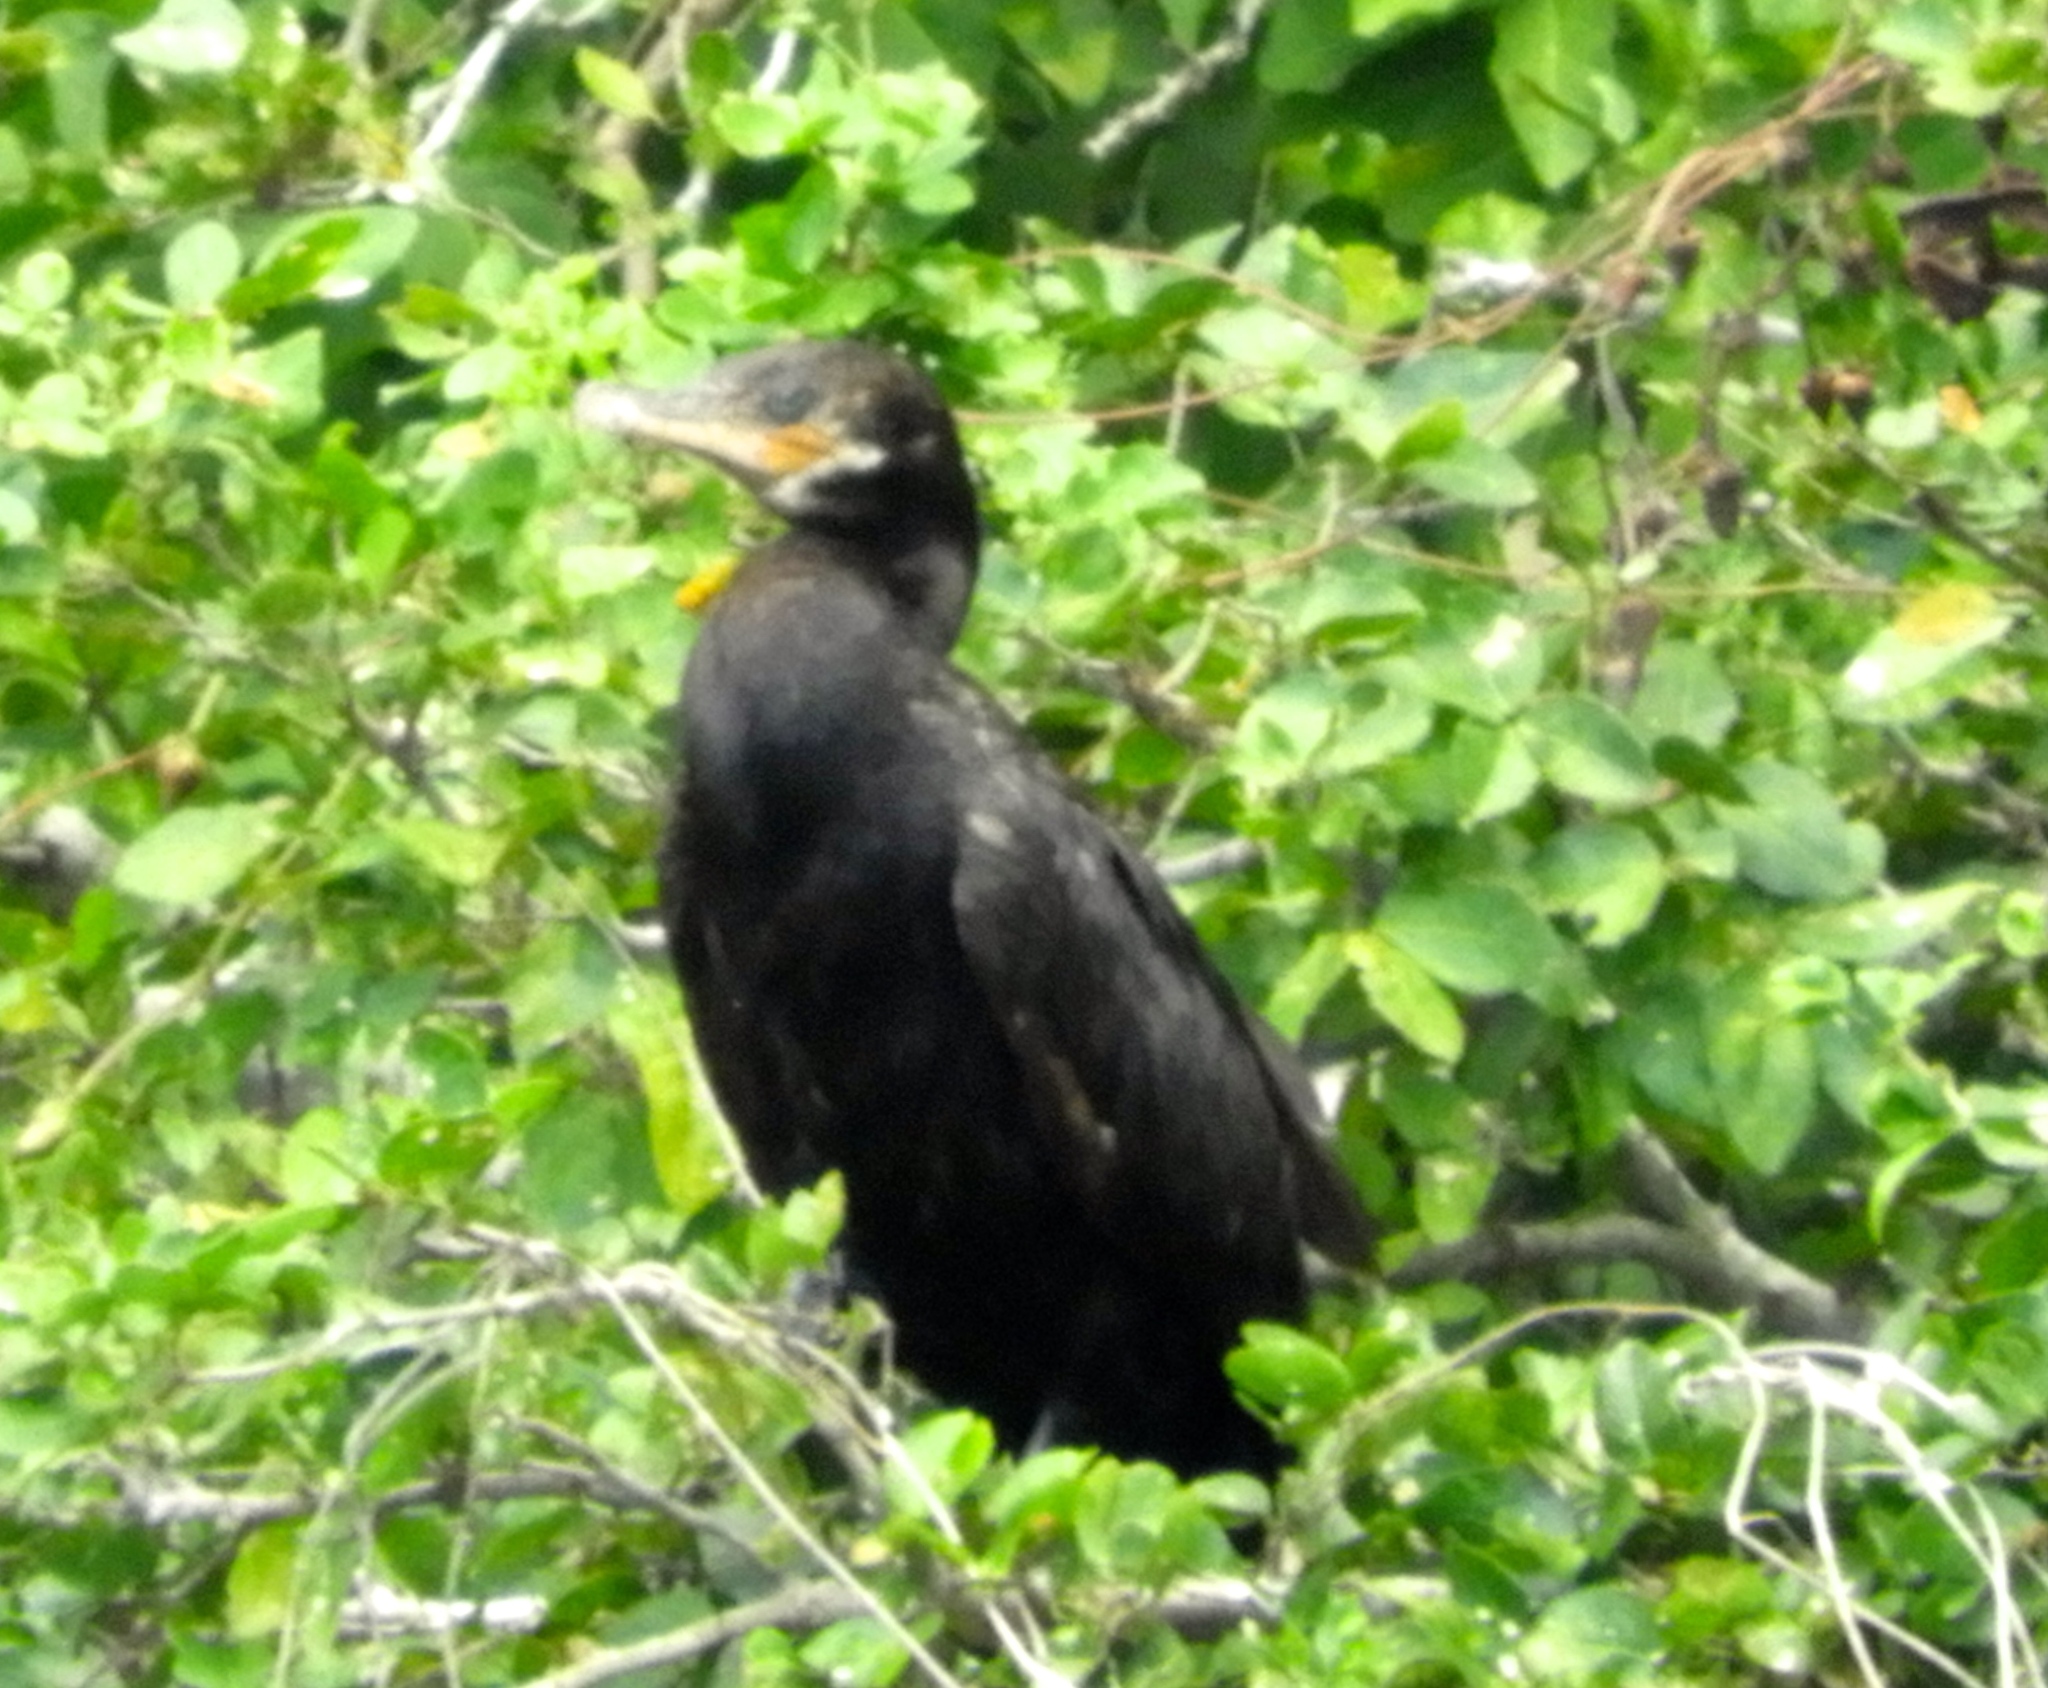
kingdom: Animalia
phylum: Chordata
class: Aves
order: Suliformes
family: Phalacrocoracidae
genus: Phalacrocorax
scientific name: Phalacrocorax brasilianus
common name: Neotropic cormorant
